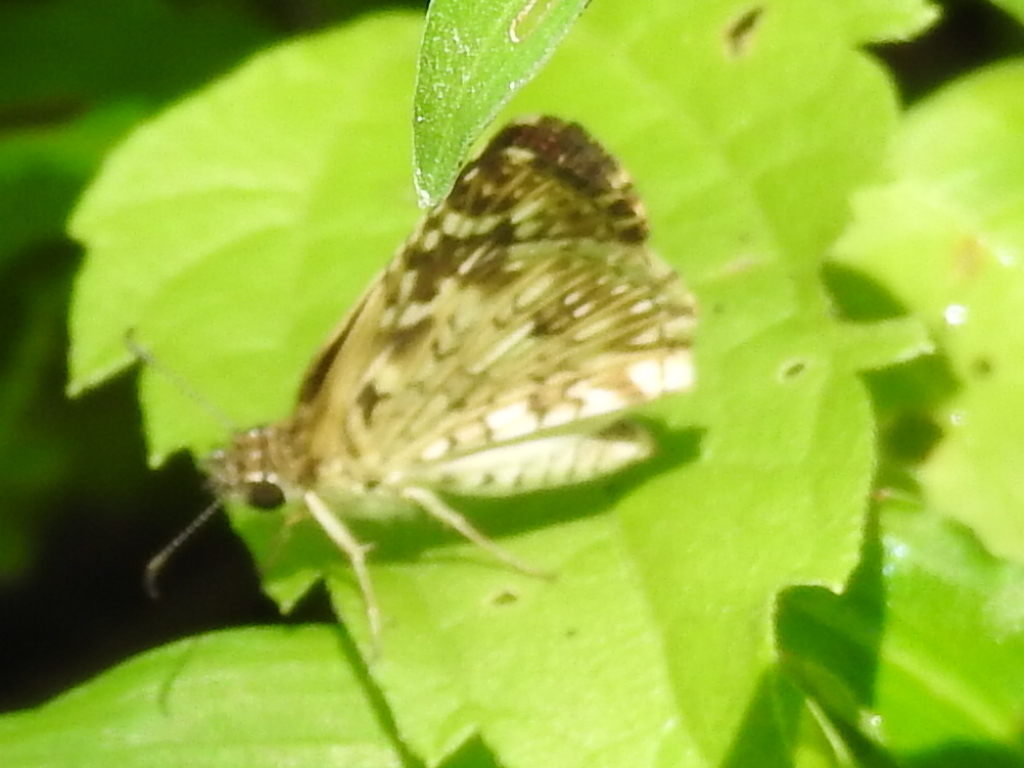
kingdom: Animalia
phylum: Arthropoda
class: Insecta
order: Lepidoptera
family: Hesperiidae
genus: Pyrgus
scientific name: Pyrgus oileus
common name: Tropical checkered-skipper
